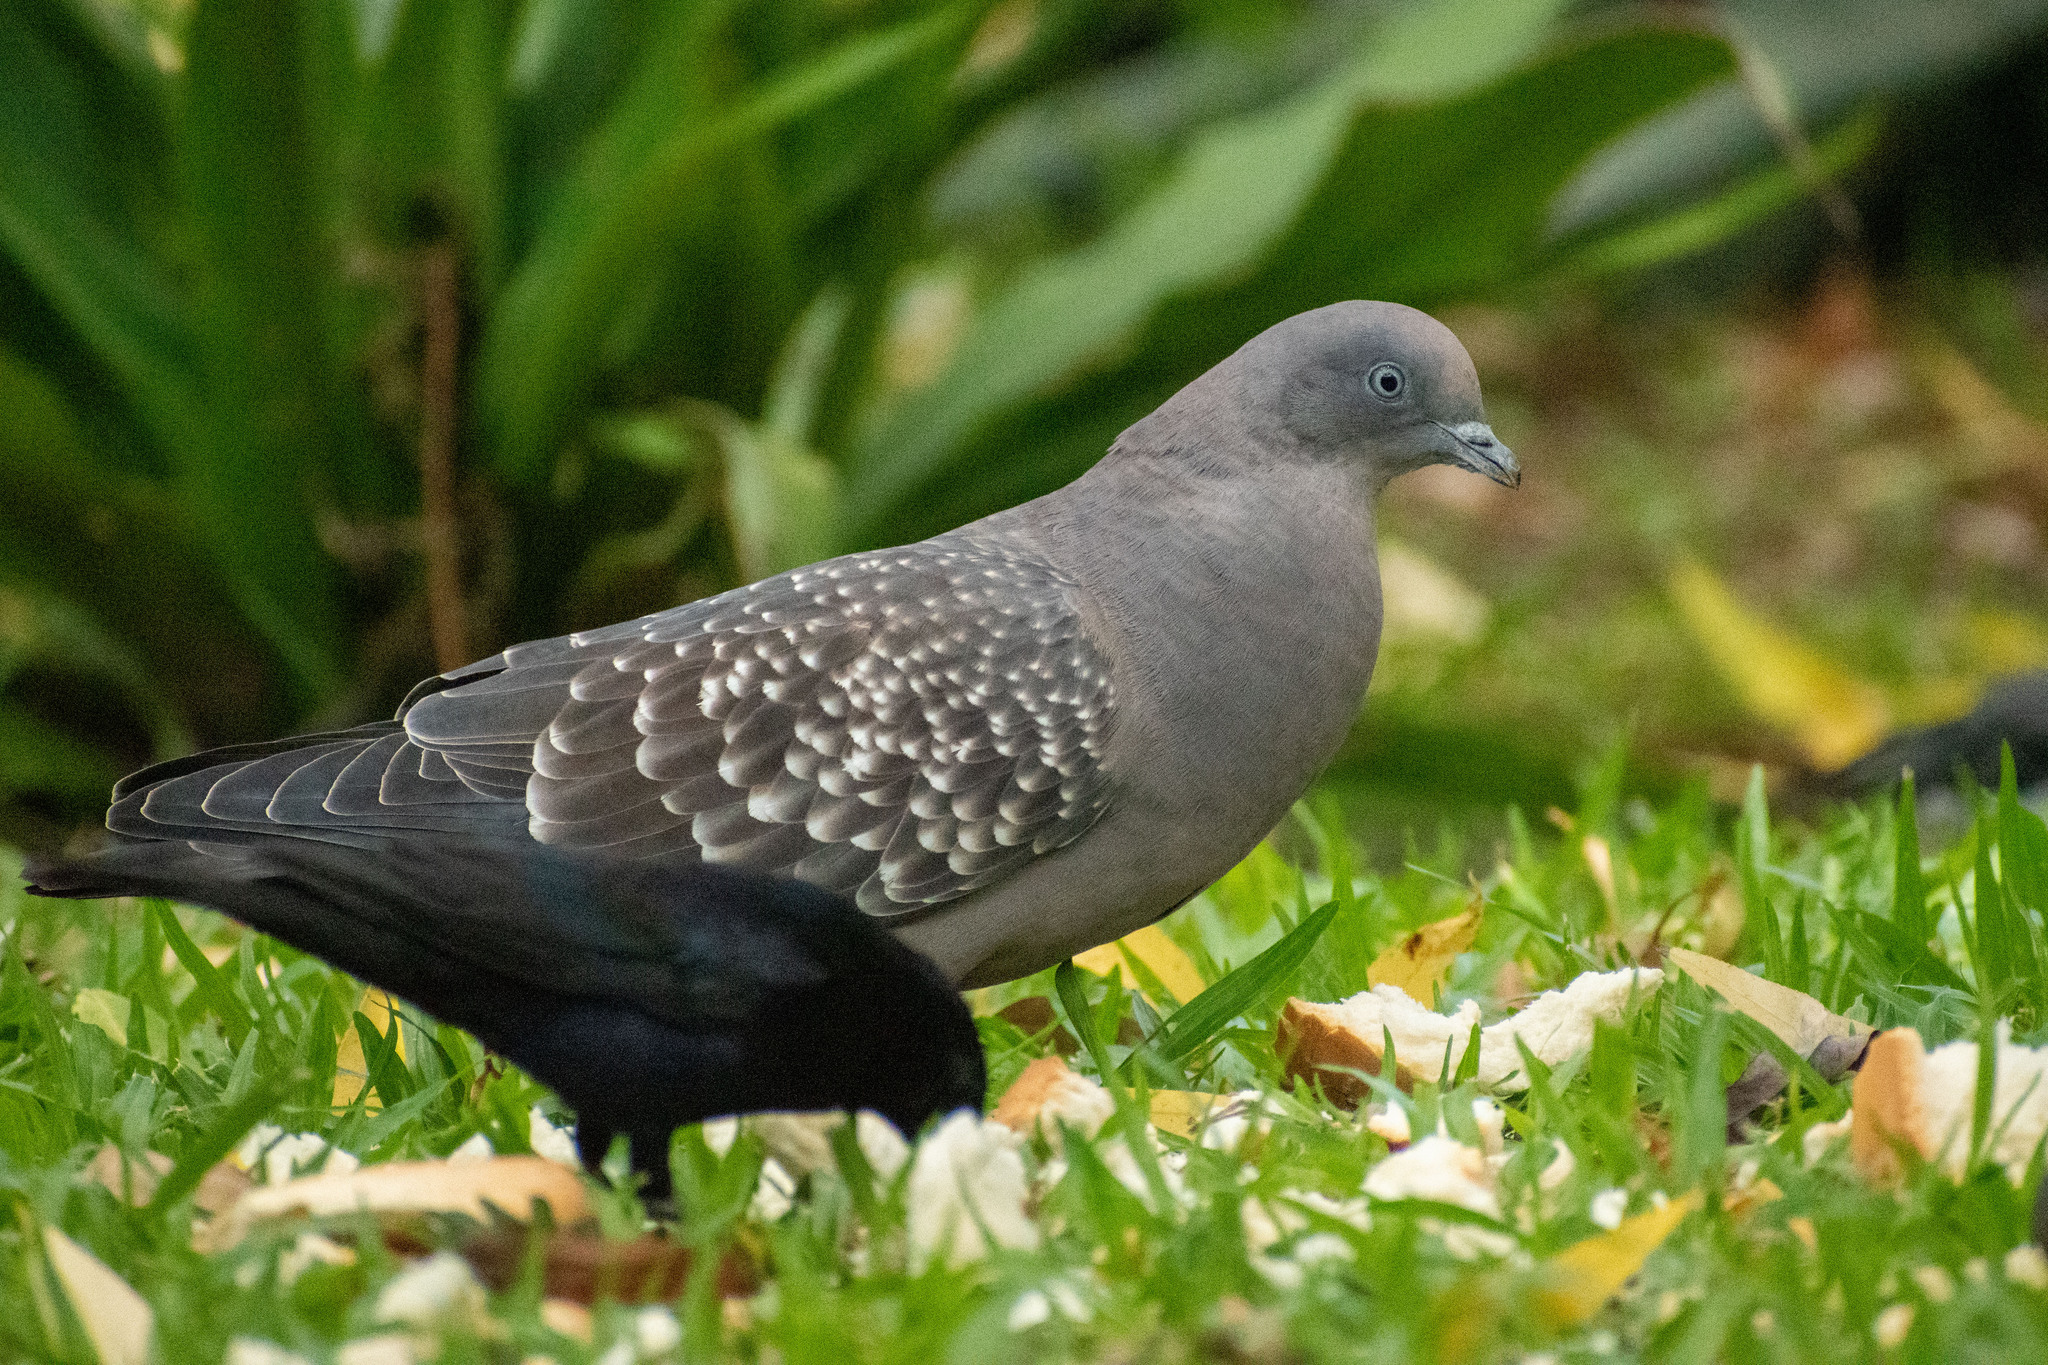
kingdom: Animalia
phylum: Chordata
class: Aves
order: Columbiformes
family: Columbidae
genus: Patagioenas
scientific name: Patagioenas maculosa
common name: Spot-winged pigeon
